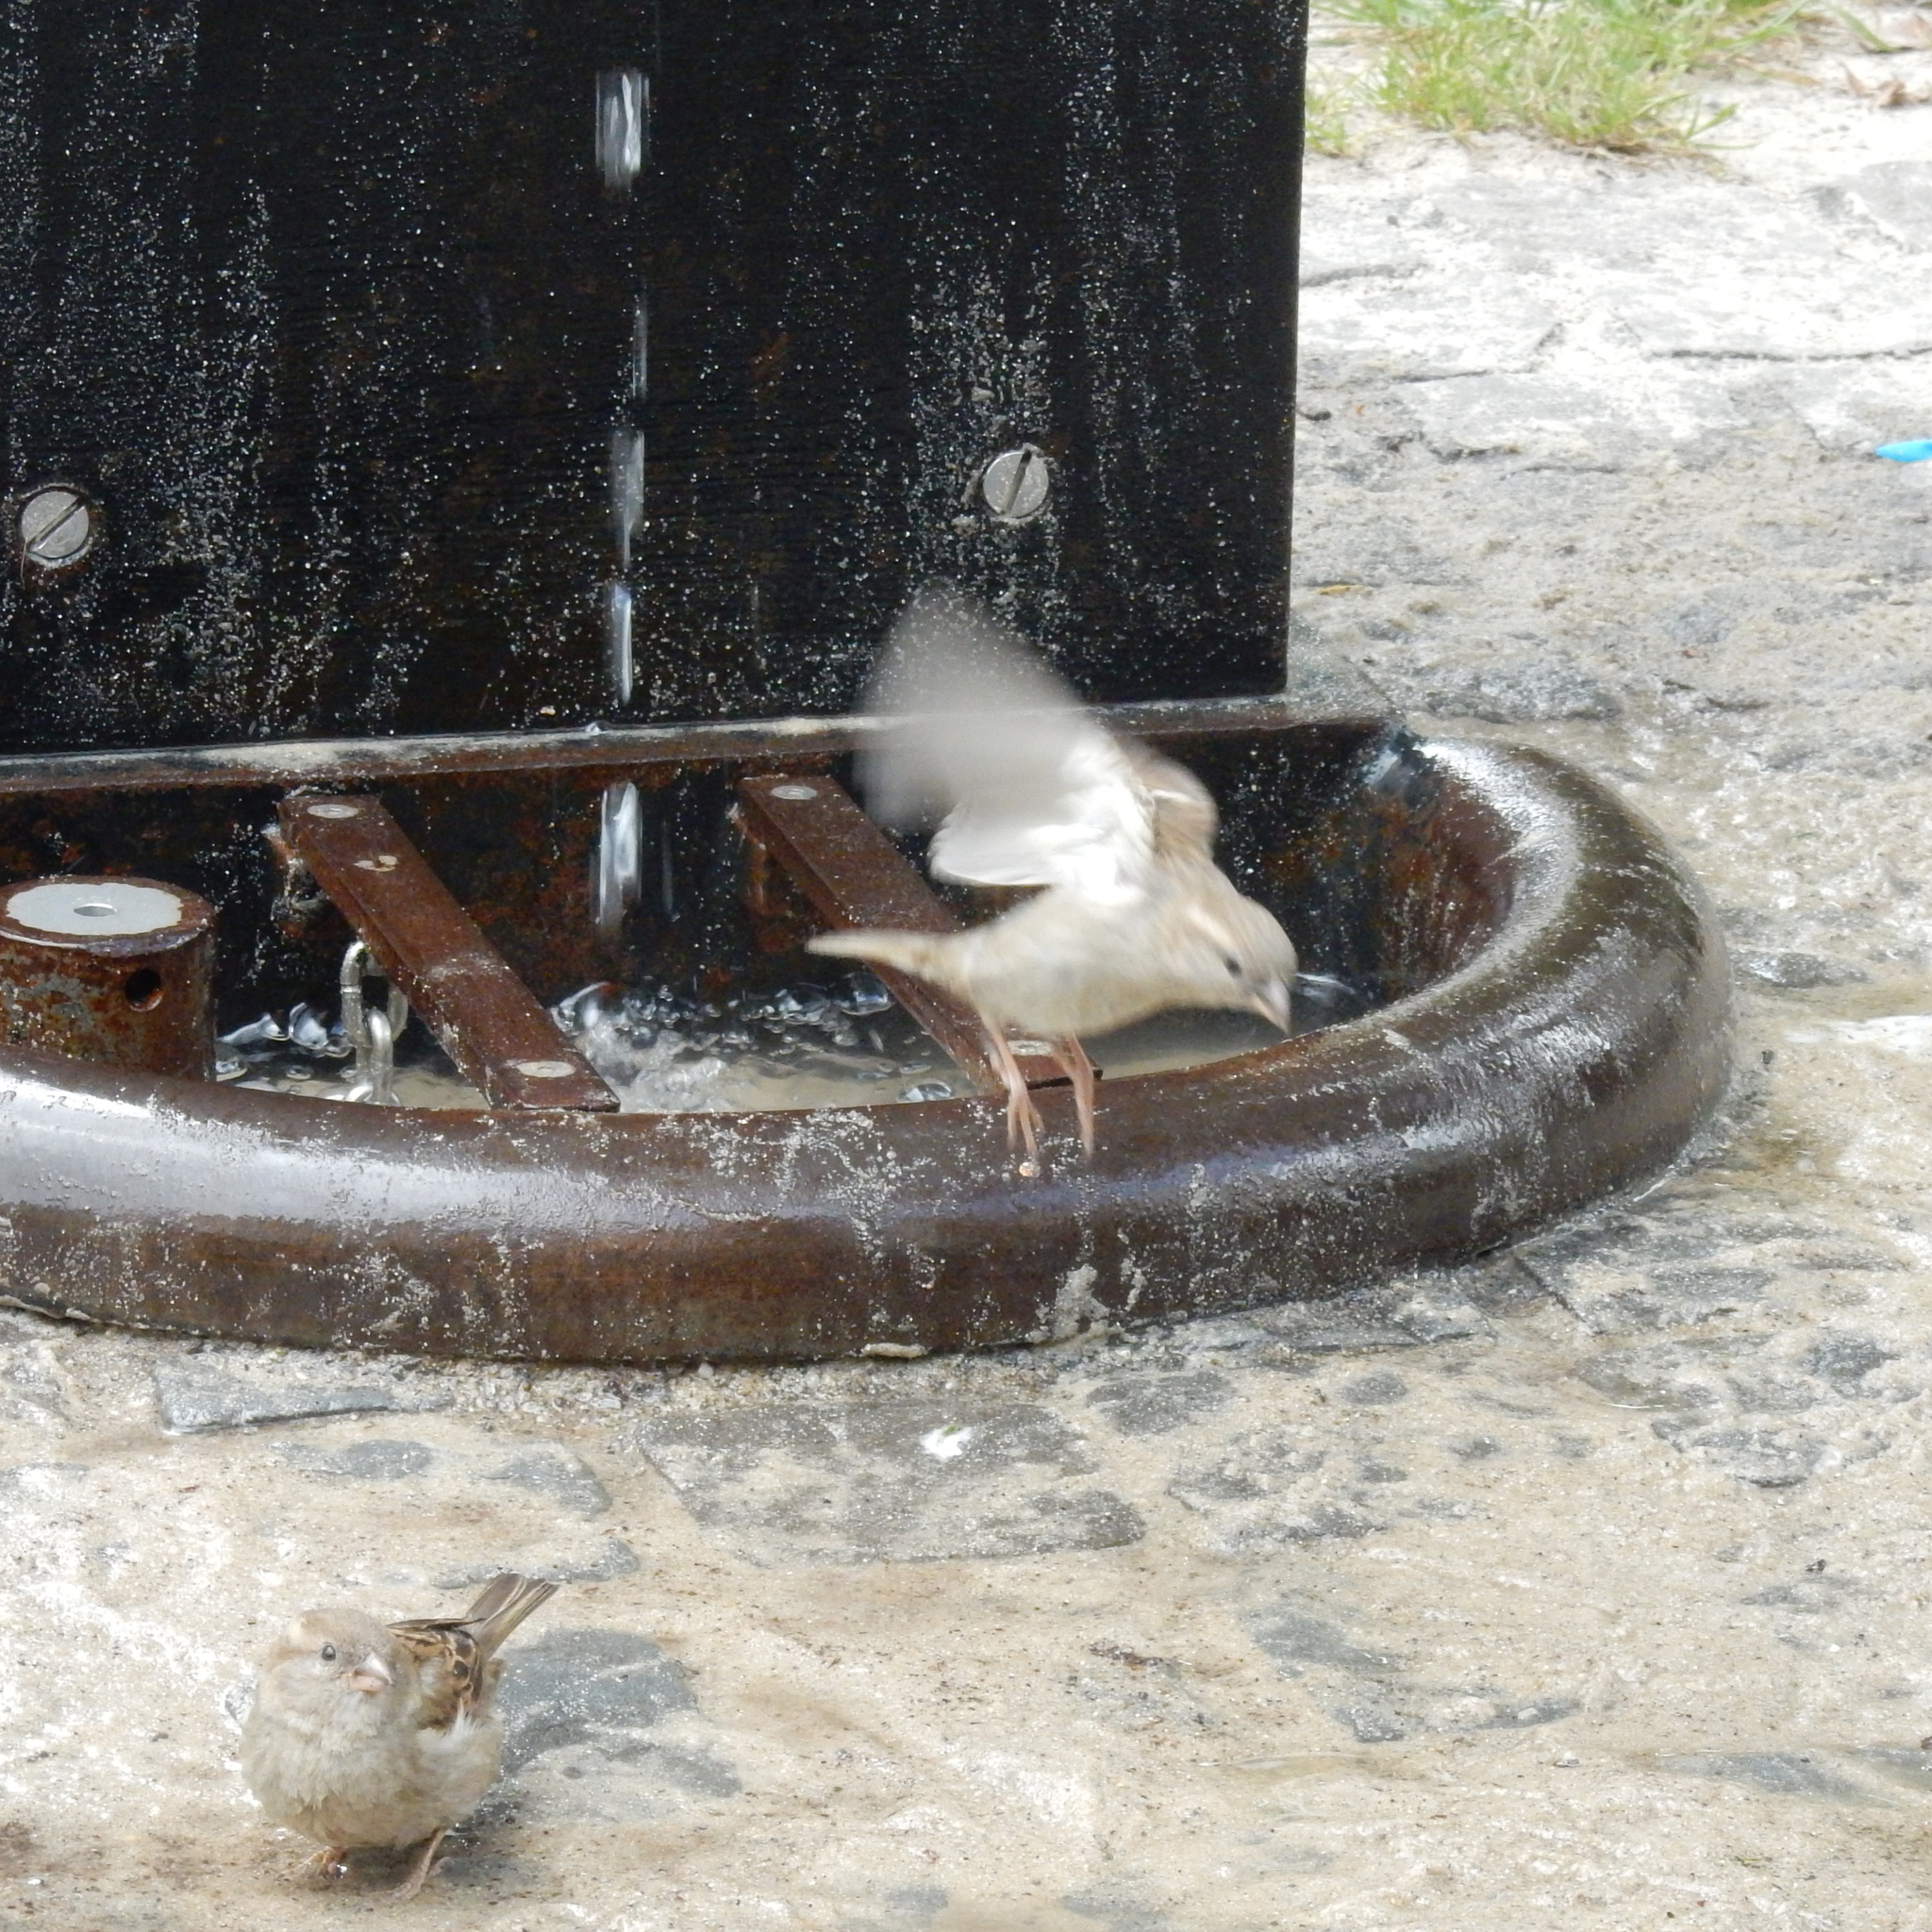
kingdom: Animalia
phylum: Chordata
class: Aves
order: Passeriformes
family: Passeridae
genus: Passer
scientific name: Passer domesticus
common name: House sparrow
